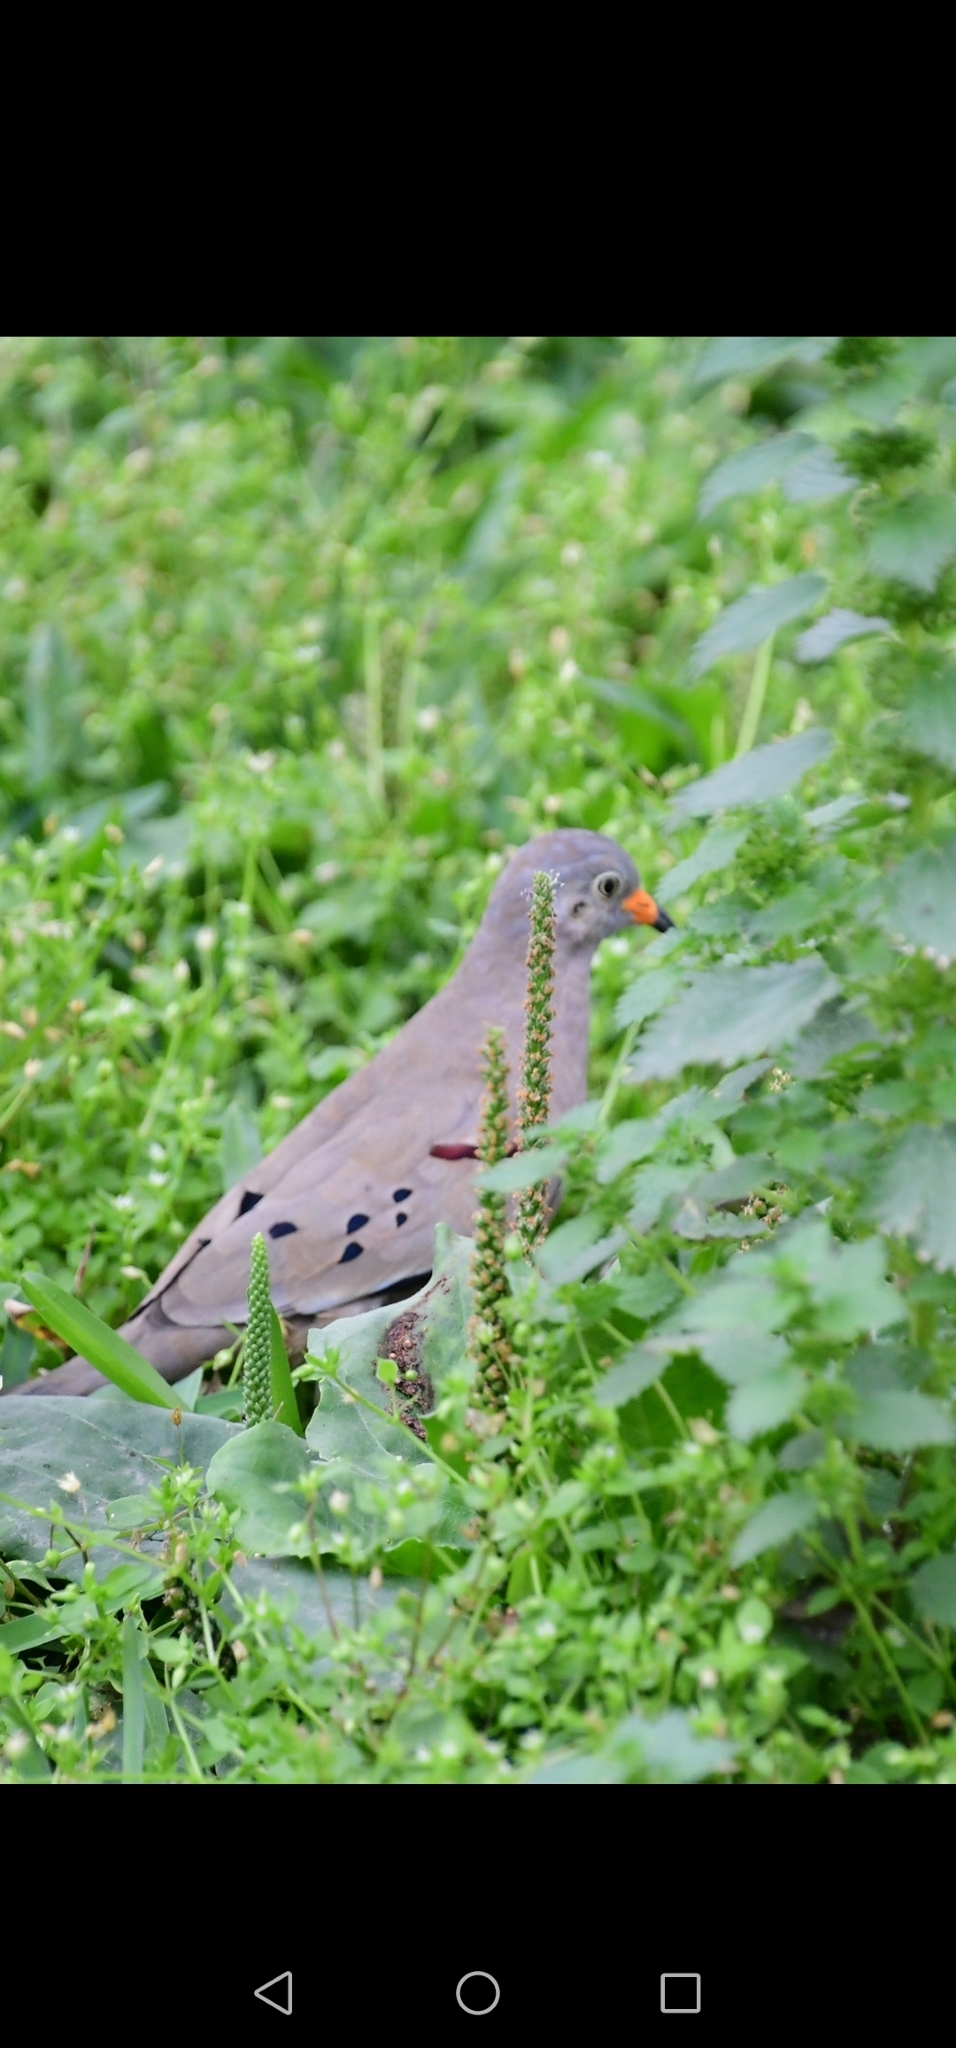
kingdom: Animalia
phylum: Chordata
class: Aves
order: Columbiformes
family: Columbidae
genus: Columbina
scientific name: Columbina cruziana
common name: Croaking ground dove
